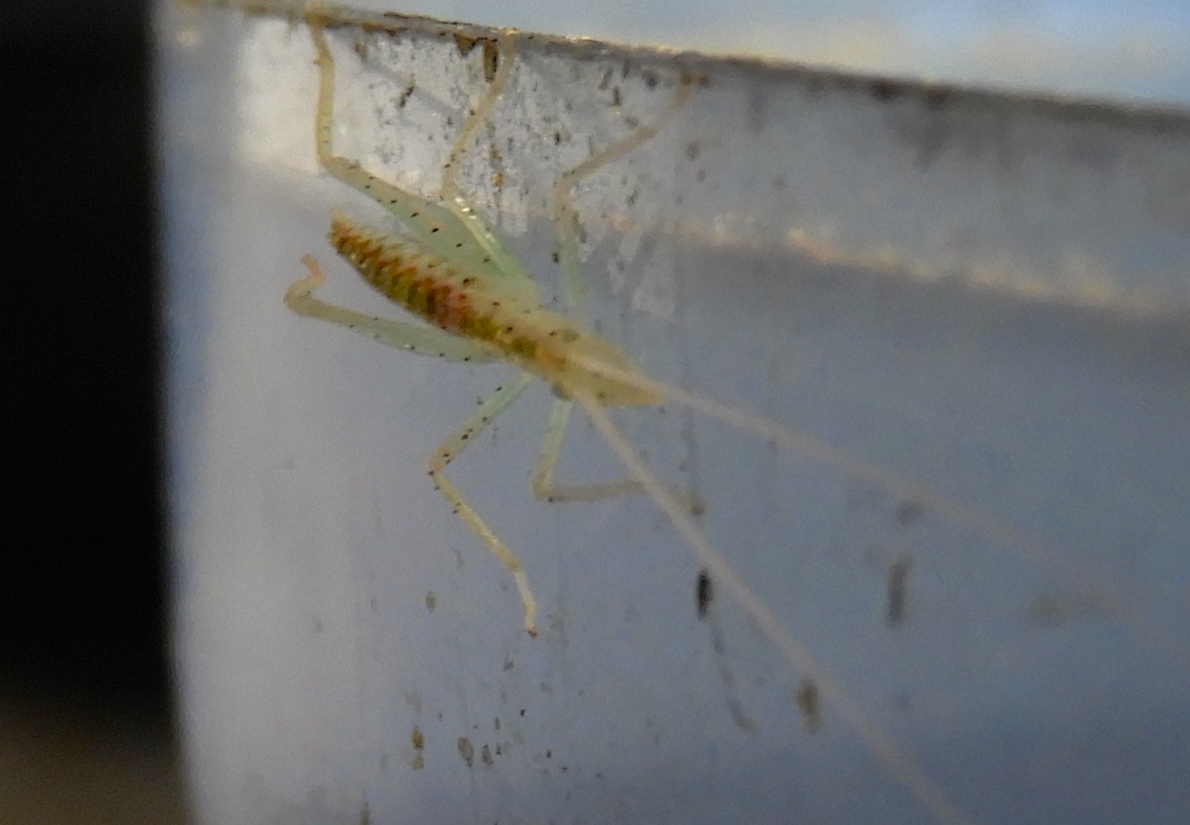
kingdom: Animalia
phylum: Arthropoda
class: Insecta
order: Orthoptera
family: Gryllidae
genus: Oecanthus
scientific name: Oecanthus
